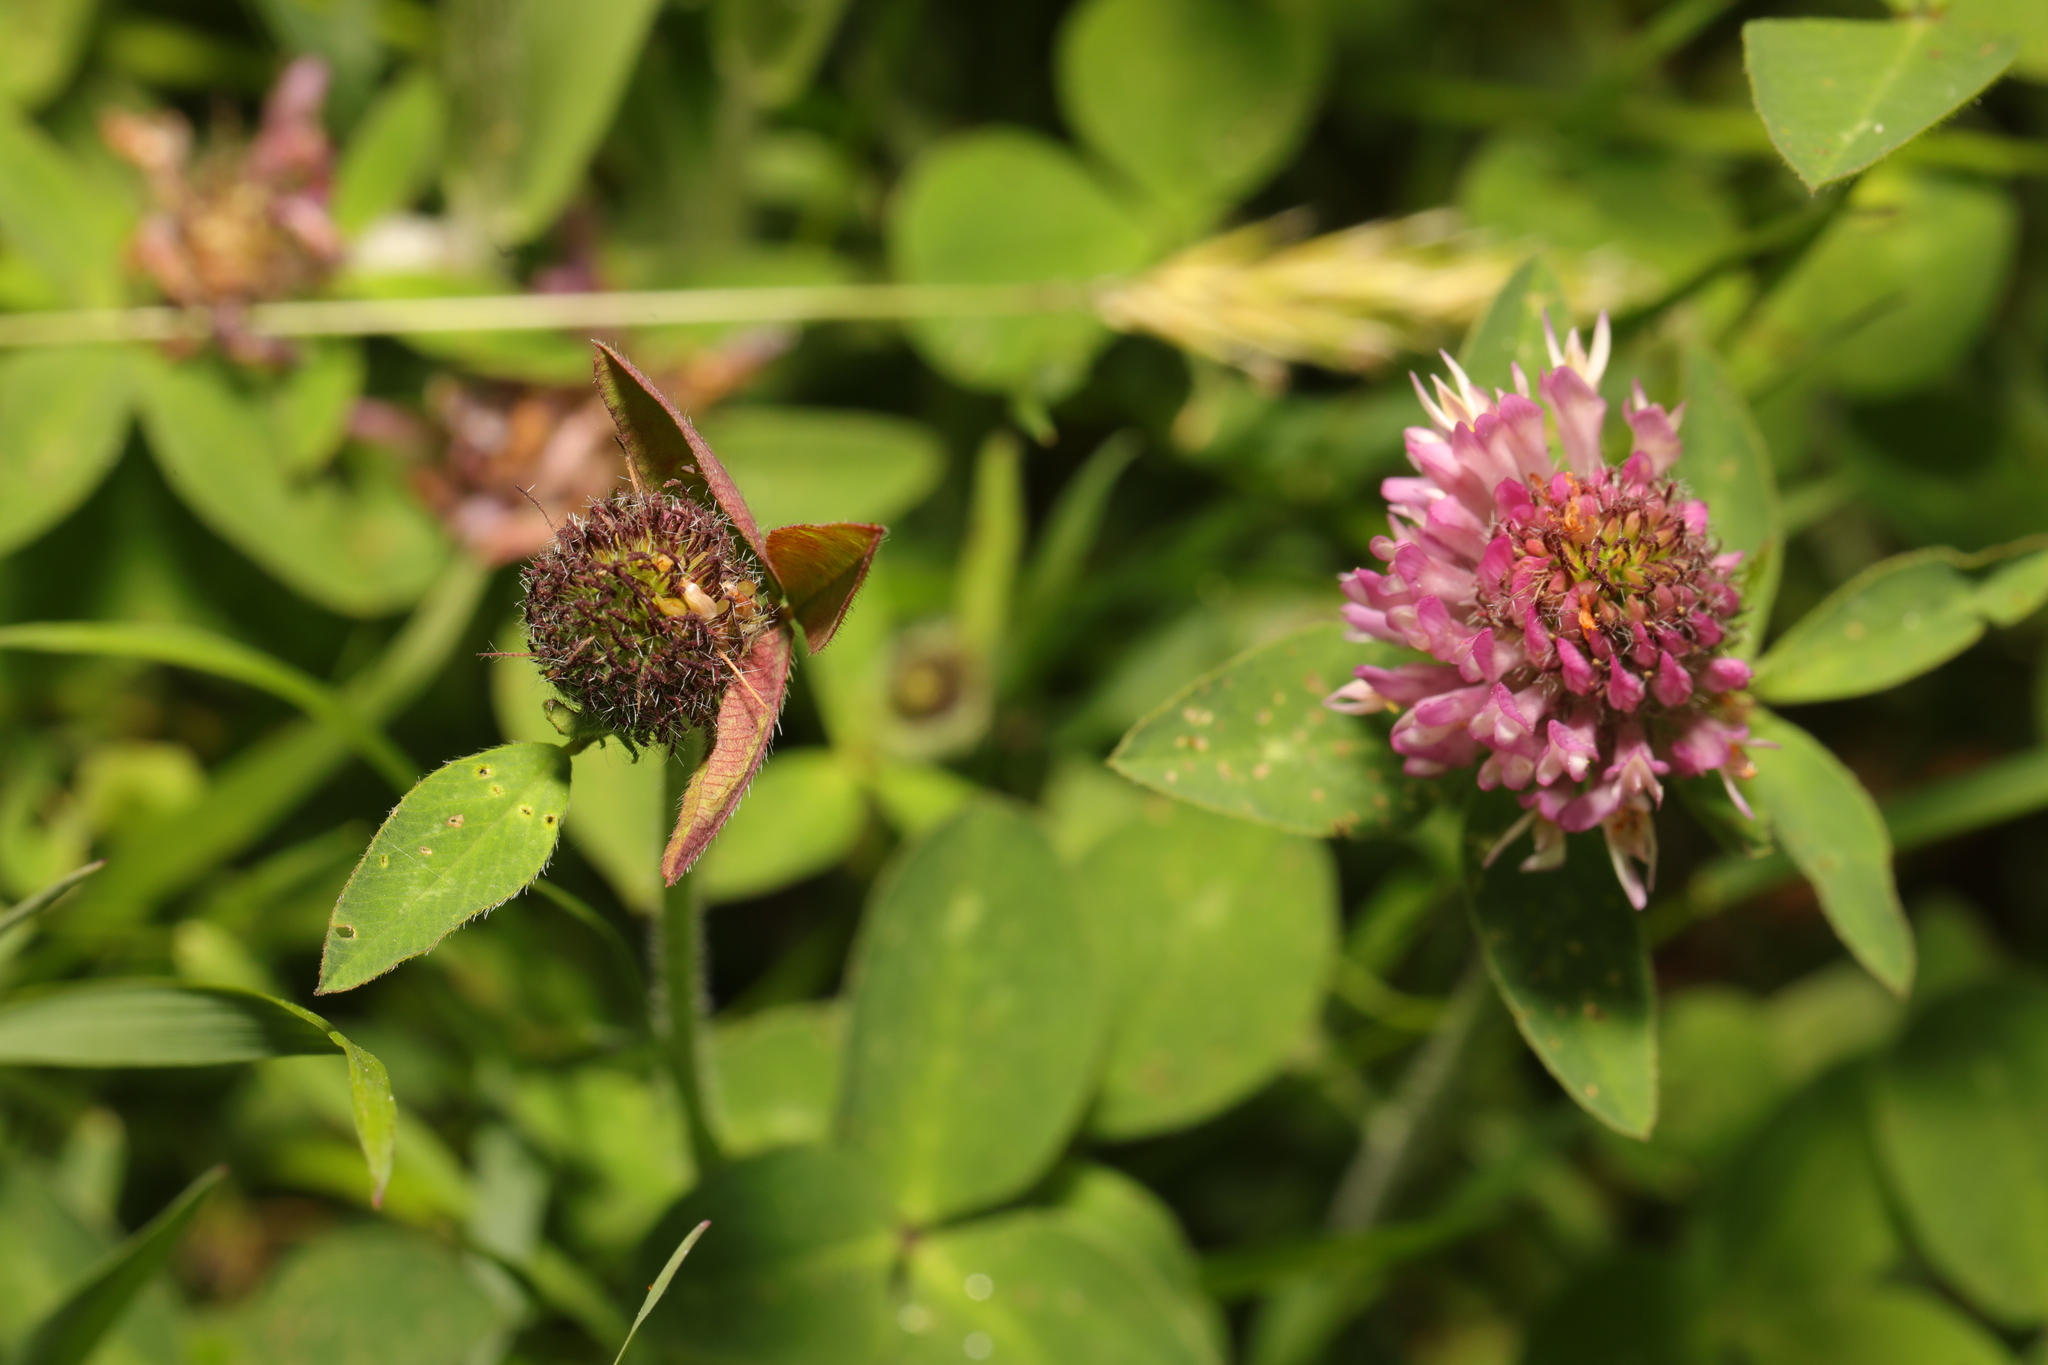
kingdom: Plantae
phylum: Tracheophyta
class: Magnoliopsida
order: Fabales
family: Fabaceae
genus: Trifolium
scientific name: Trifolium pratense
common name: Red clover
